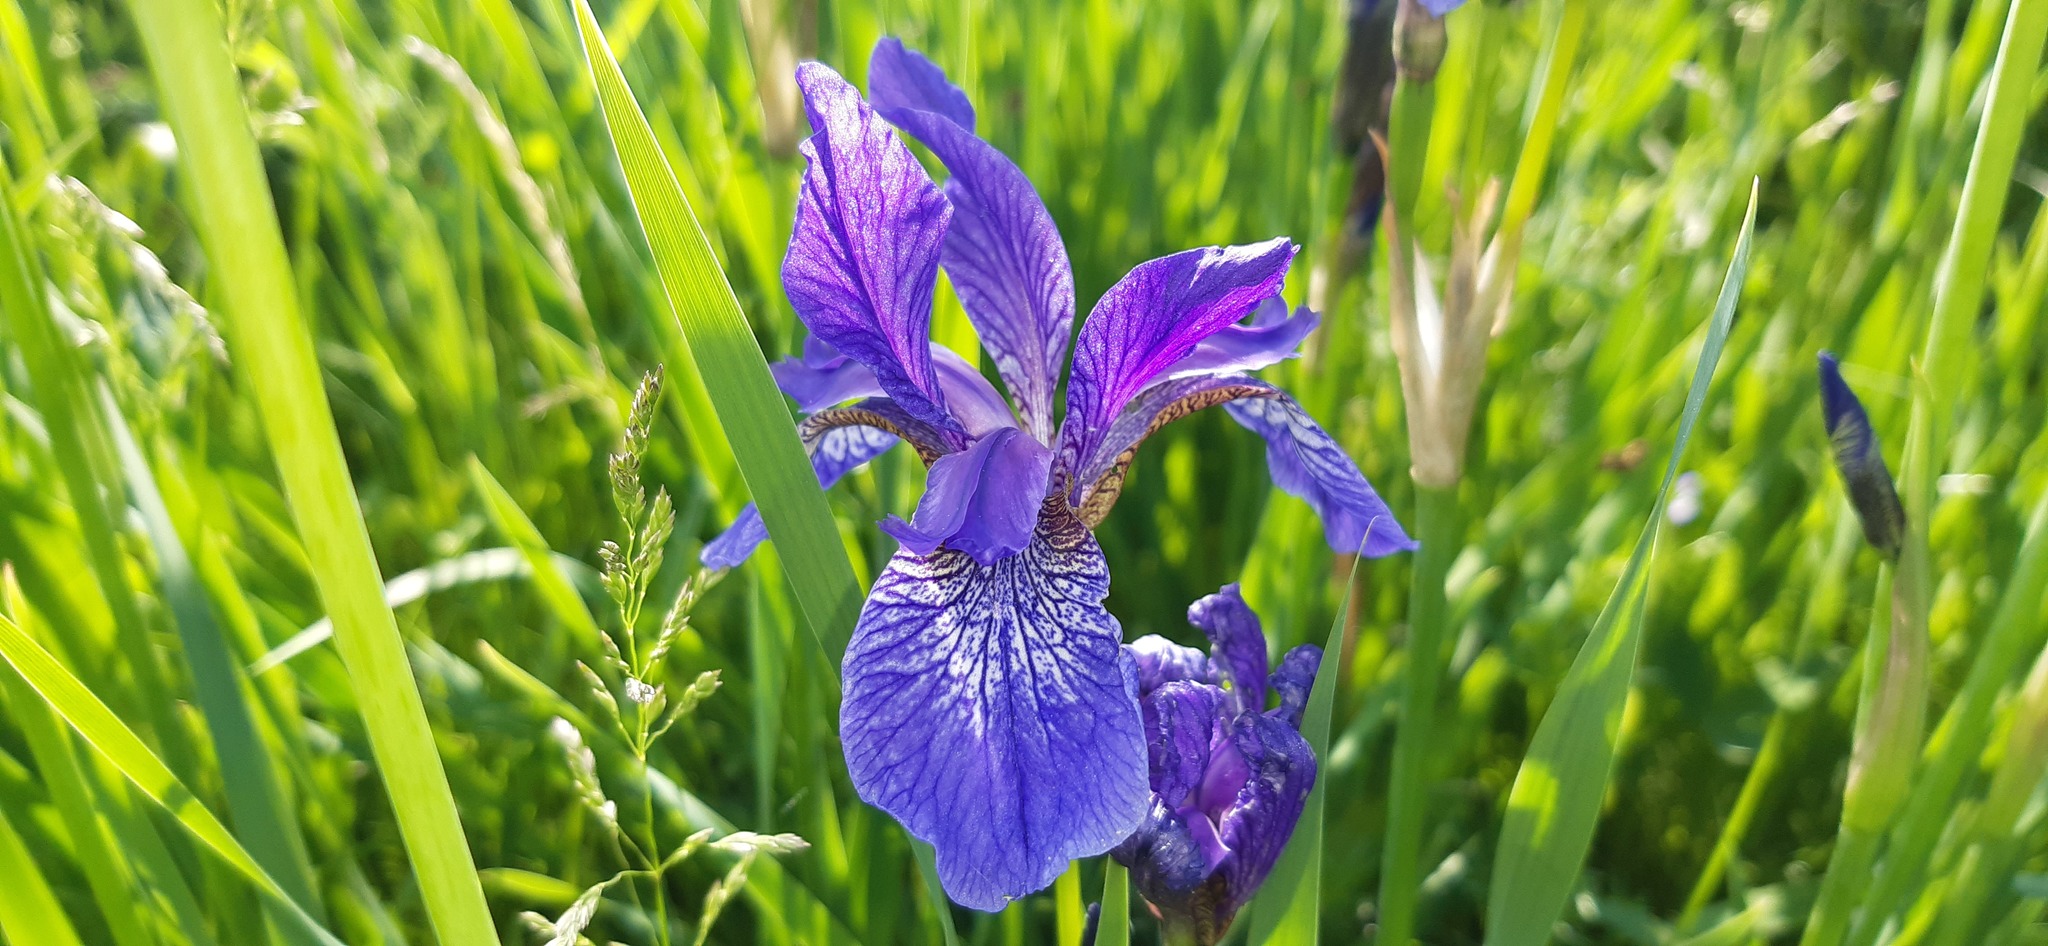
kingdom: Plantae
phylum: Tracheophyta
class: Liliopsida
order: Asparagales
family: Iridaceae
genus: Iris
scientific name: Iris sibirica
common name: Siberian iris
